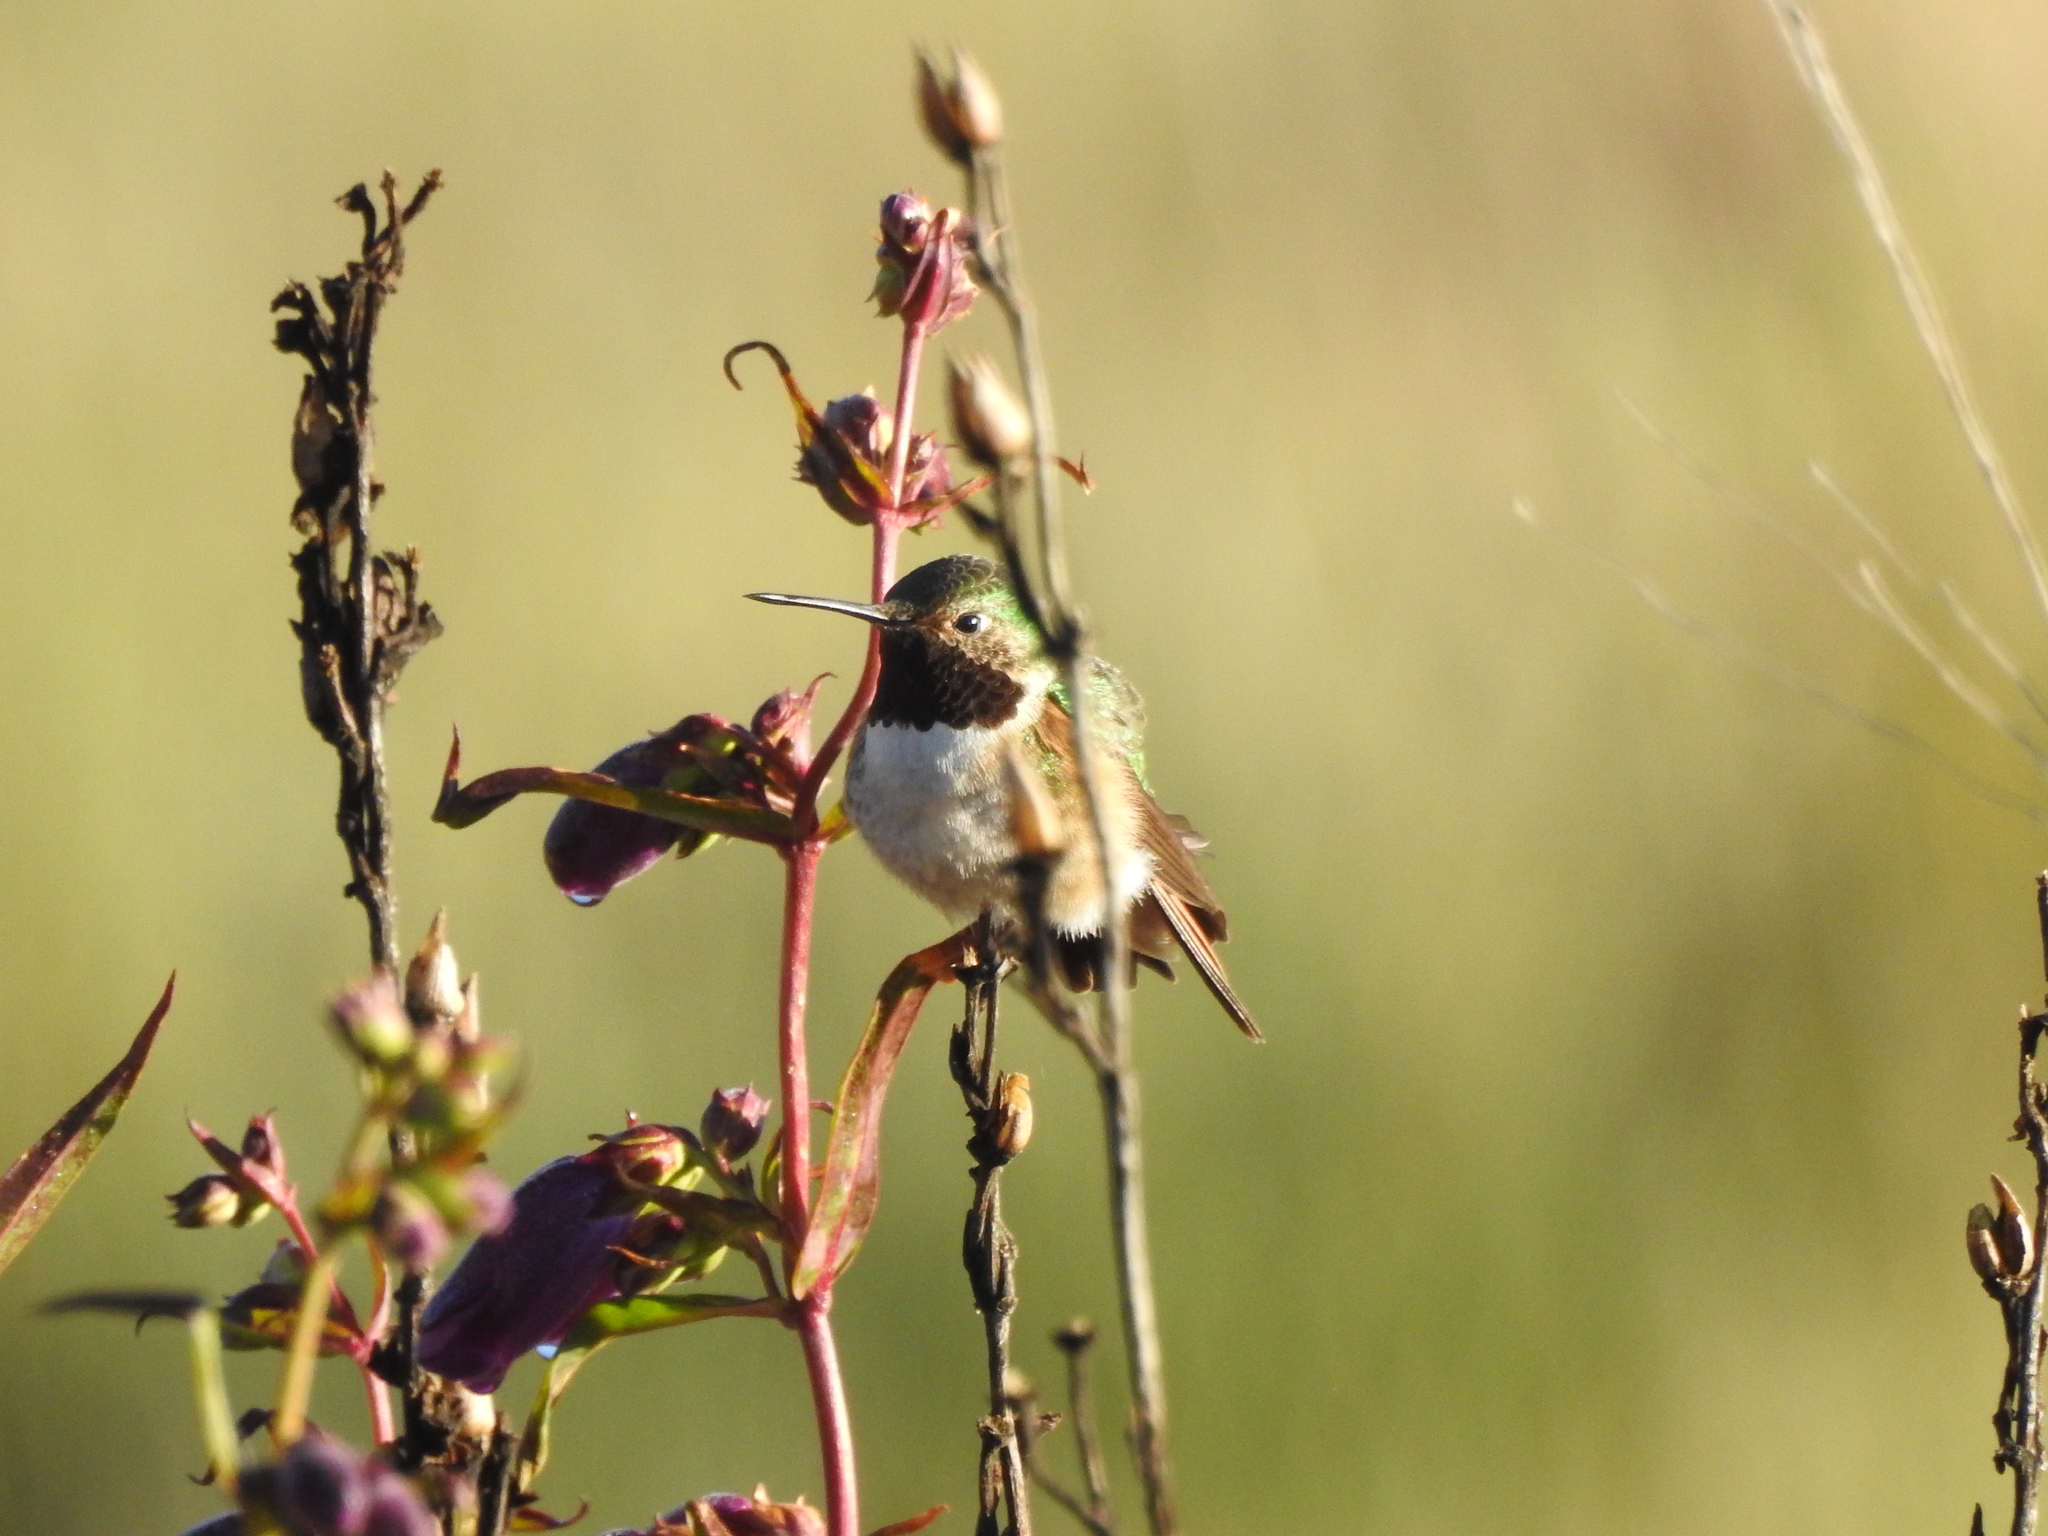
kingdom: Animalia
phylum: Chordata
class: Aves
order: Apodiformes
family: Trochilidae
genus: Selasphorus
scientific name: Selasphorus platycercus
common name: Broad-tailed hummingbird
